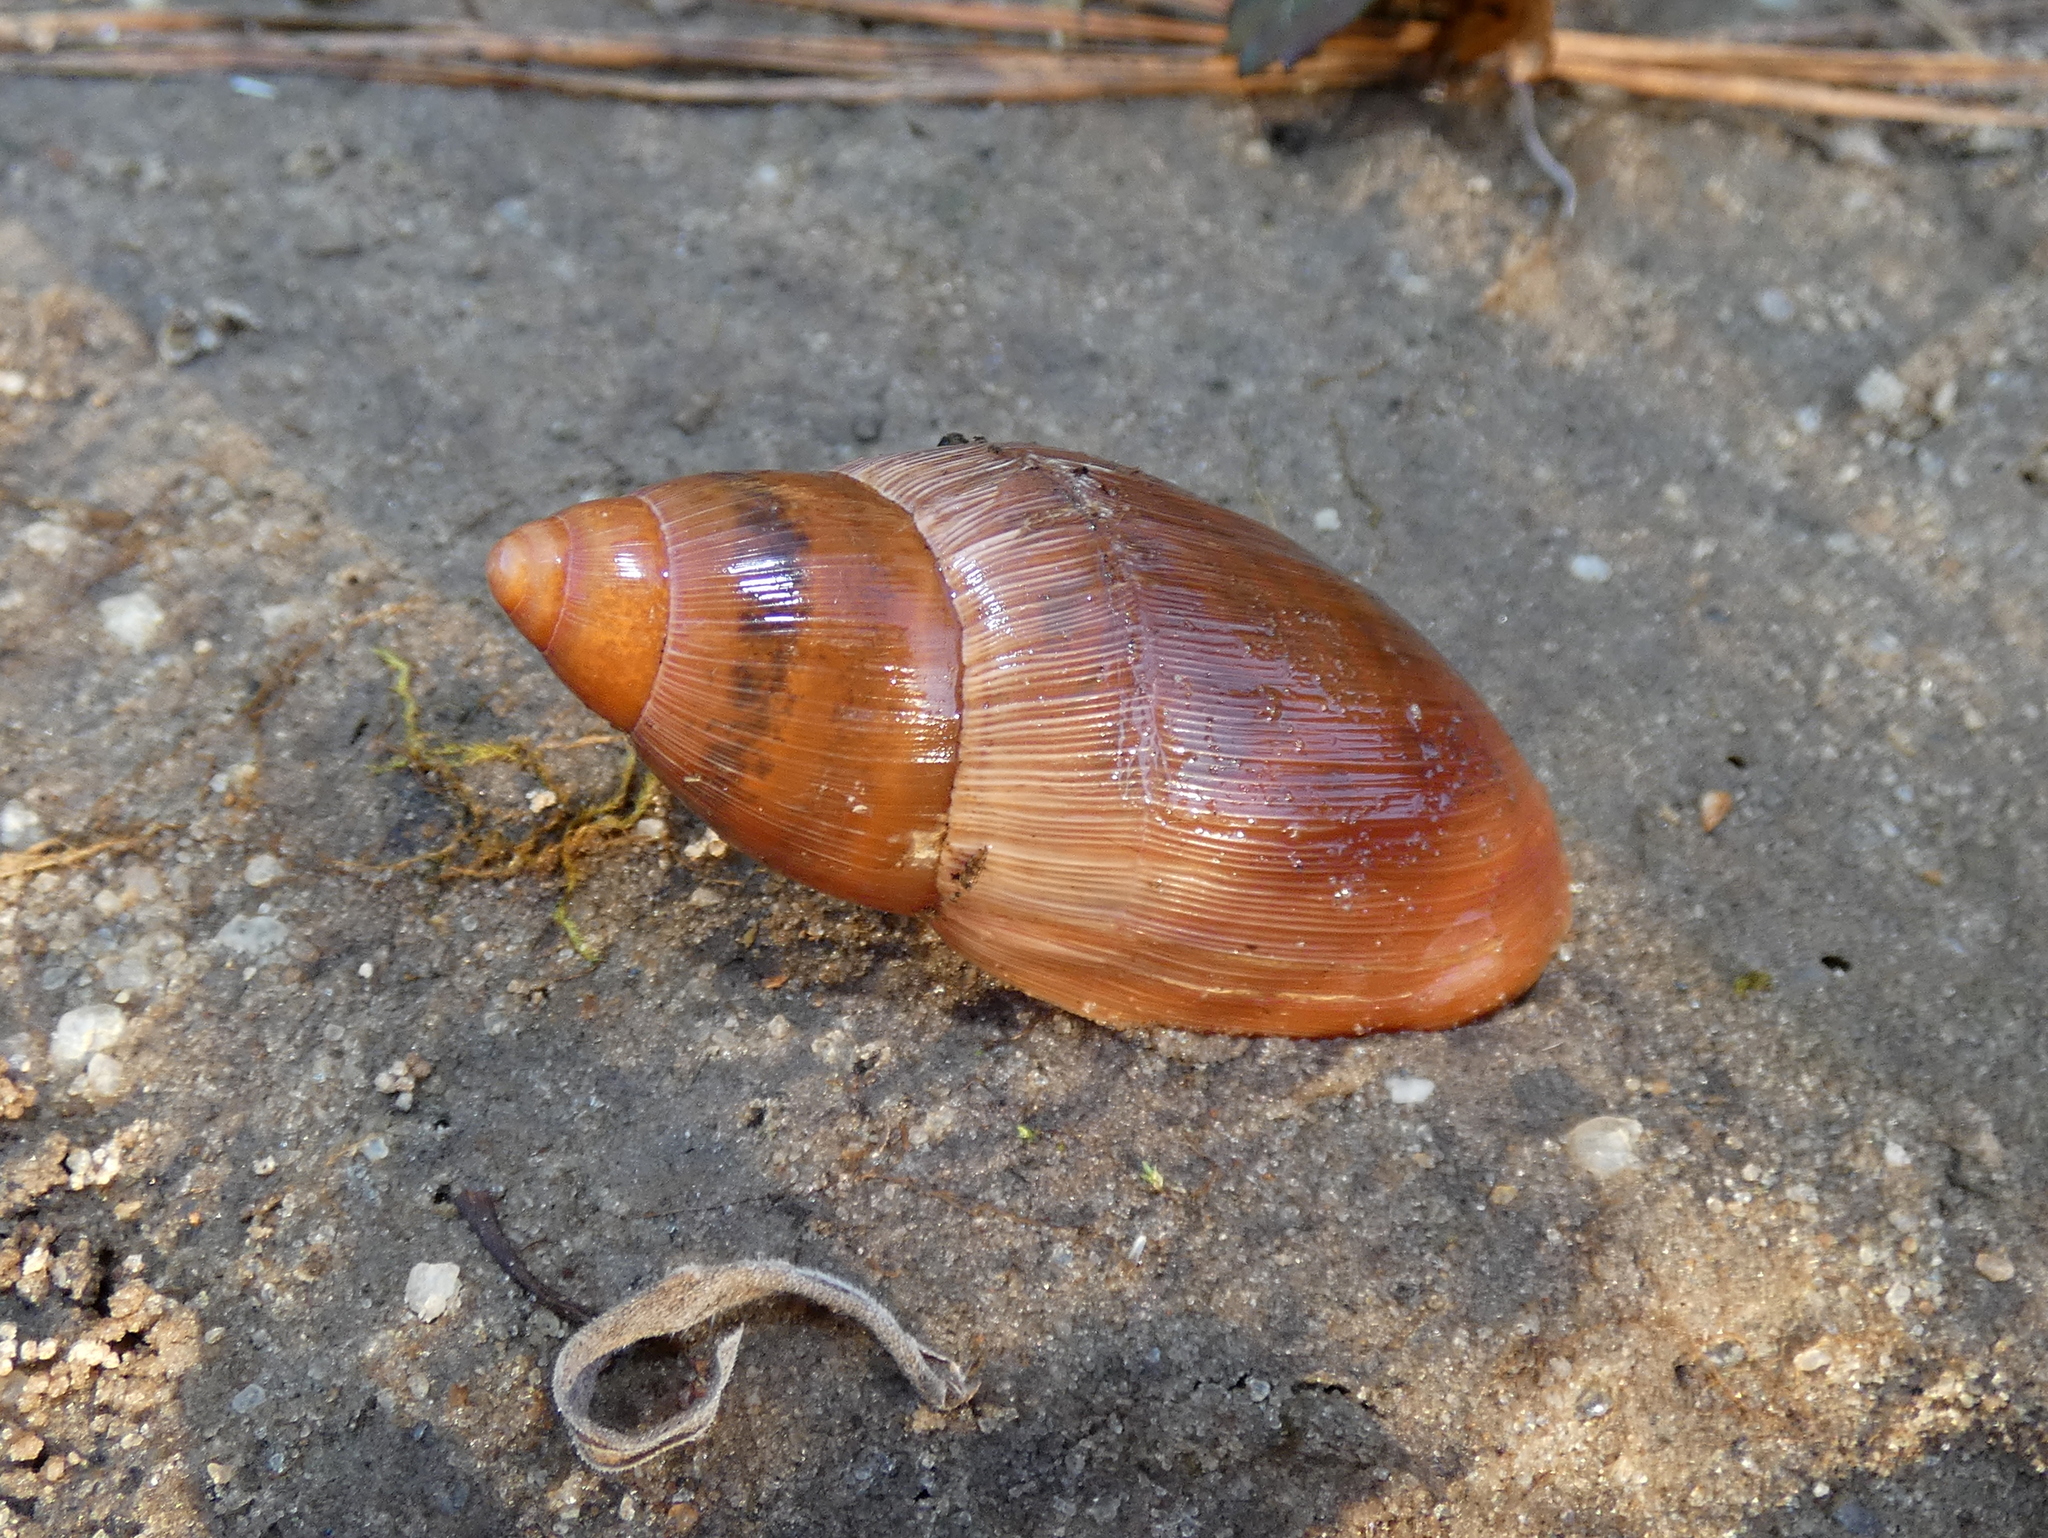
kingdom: Animalia
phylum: Mollusca
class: Gastropoda
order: Stylommatophora
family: Spiraxidae
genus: Euglandina
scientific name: Euglandina rosea
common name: Rosy wolfsnail
